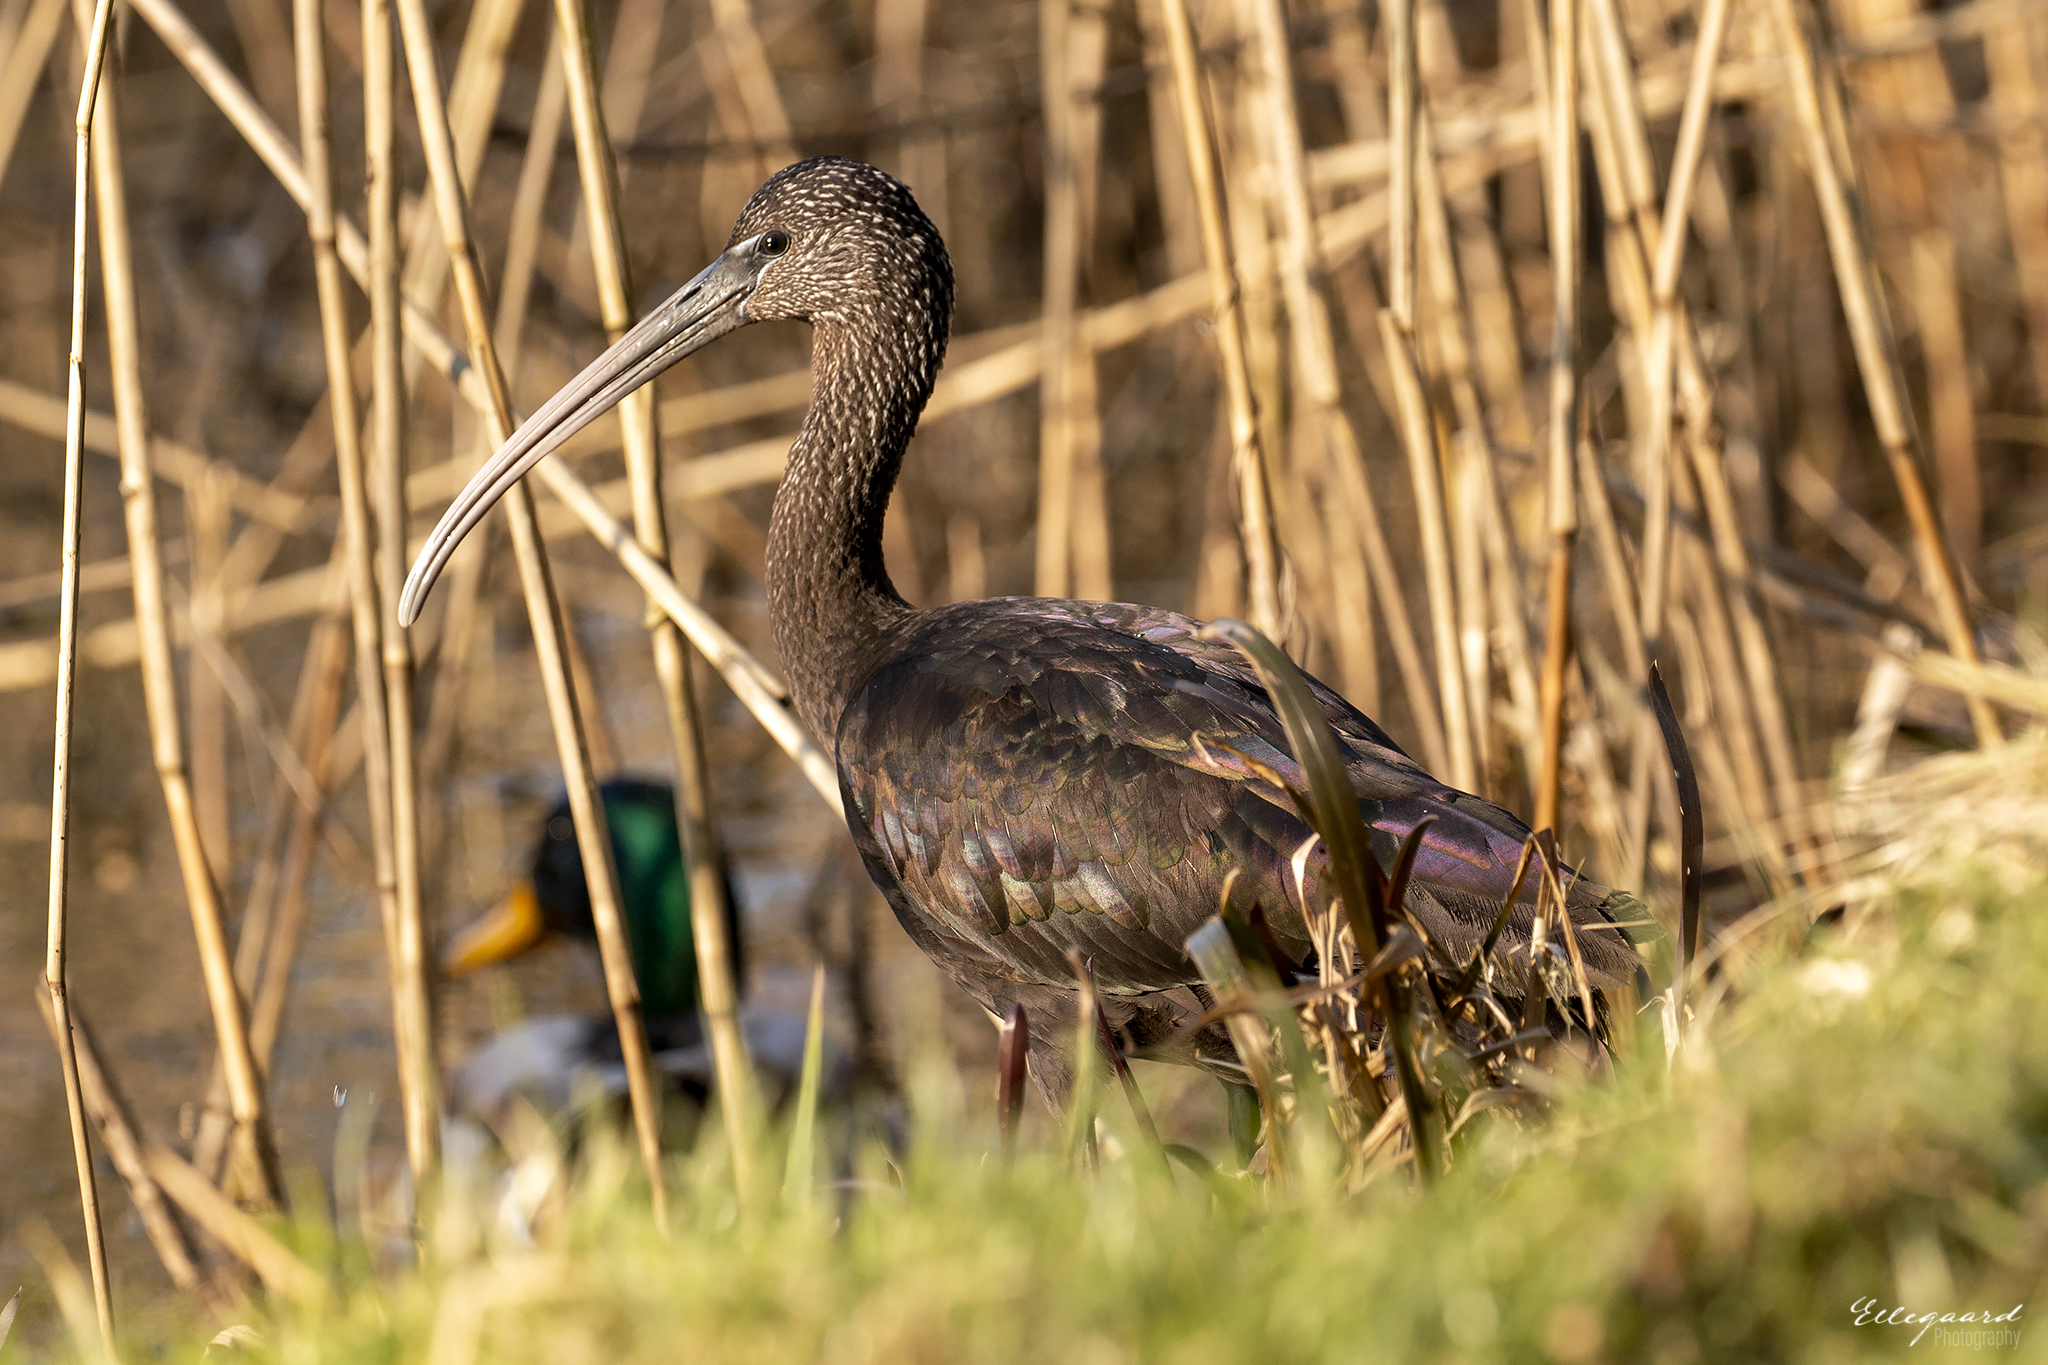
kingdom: Animalia
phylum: Chordata
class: Aves
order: Pelecaniformes
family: Threskiornithidae
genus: Plegadis
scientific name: Plegadis falcinellus
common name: Glossy ibis
